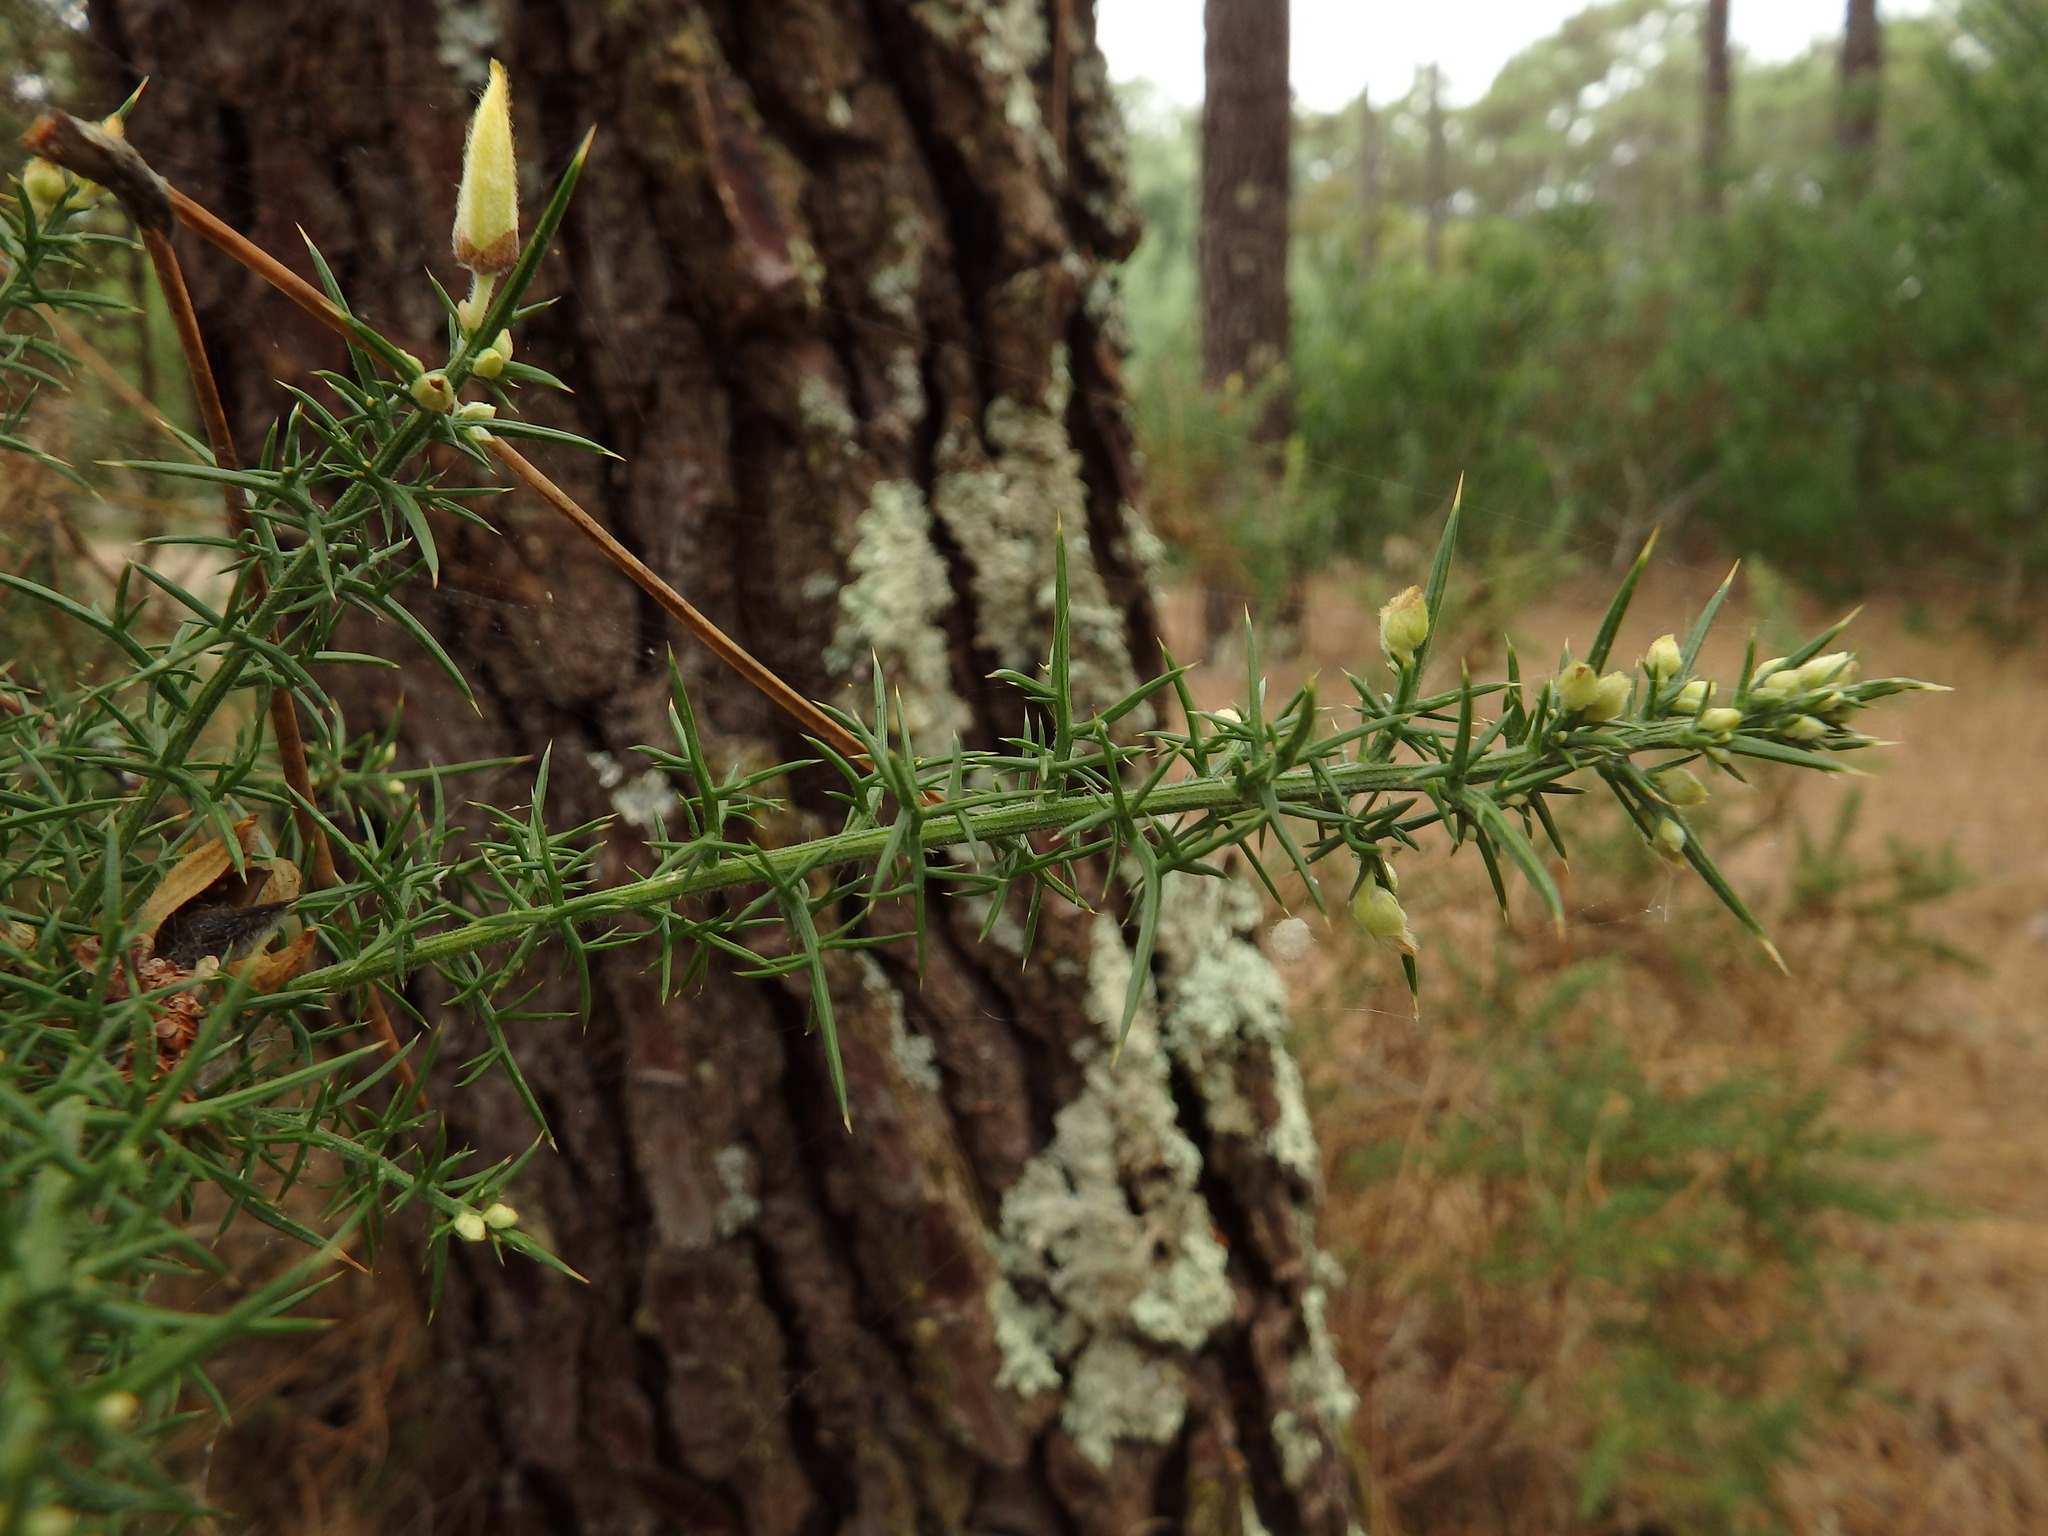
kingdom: Plantae
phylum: Tracheophyta
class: Magnoliopsida
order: Fabales
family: Fabaceae
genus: Ulex
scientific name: Ulex europaeus
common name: Common gorse
